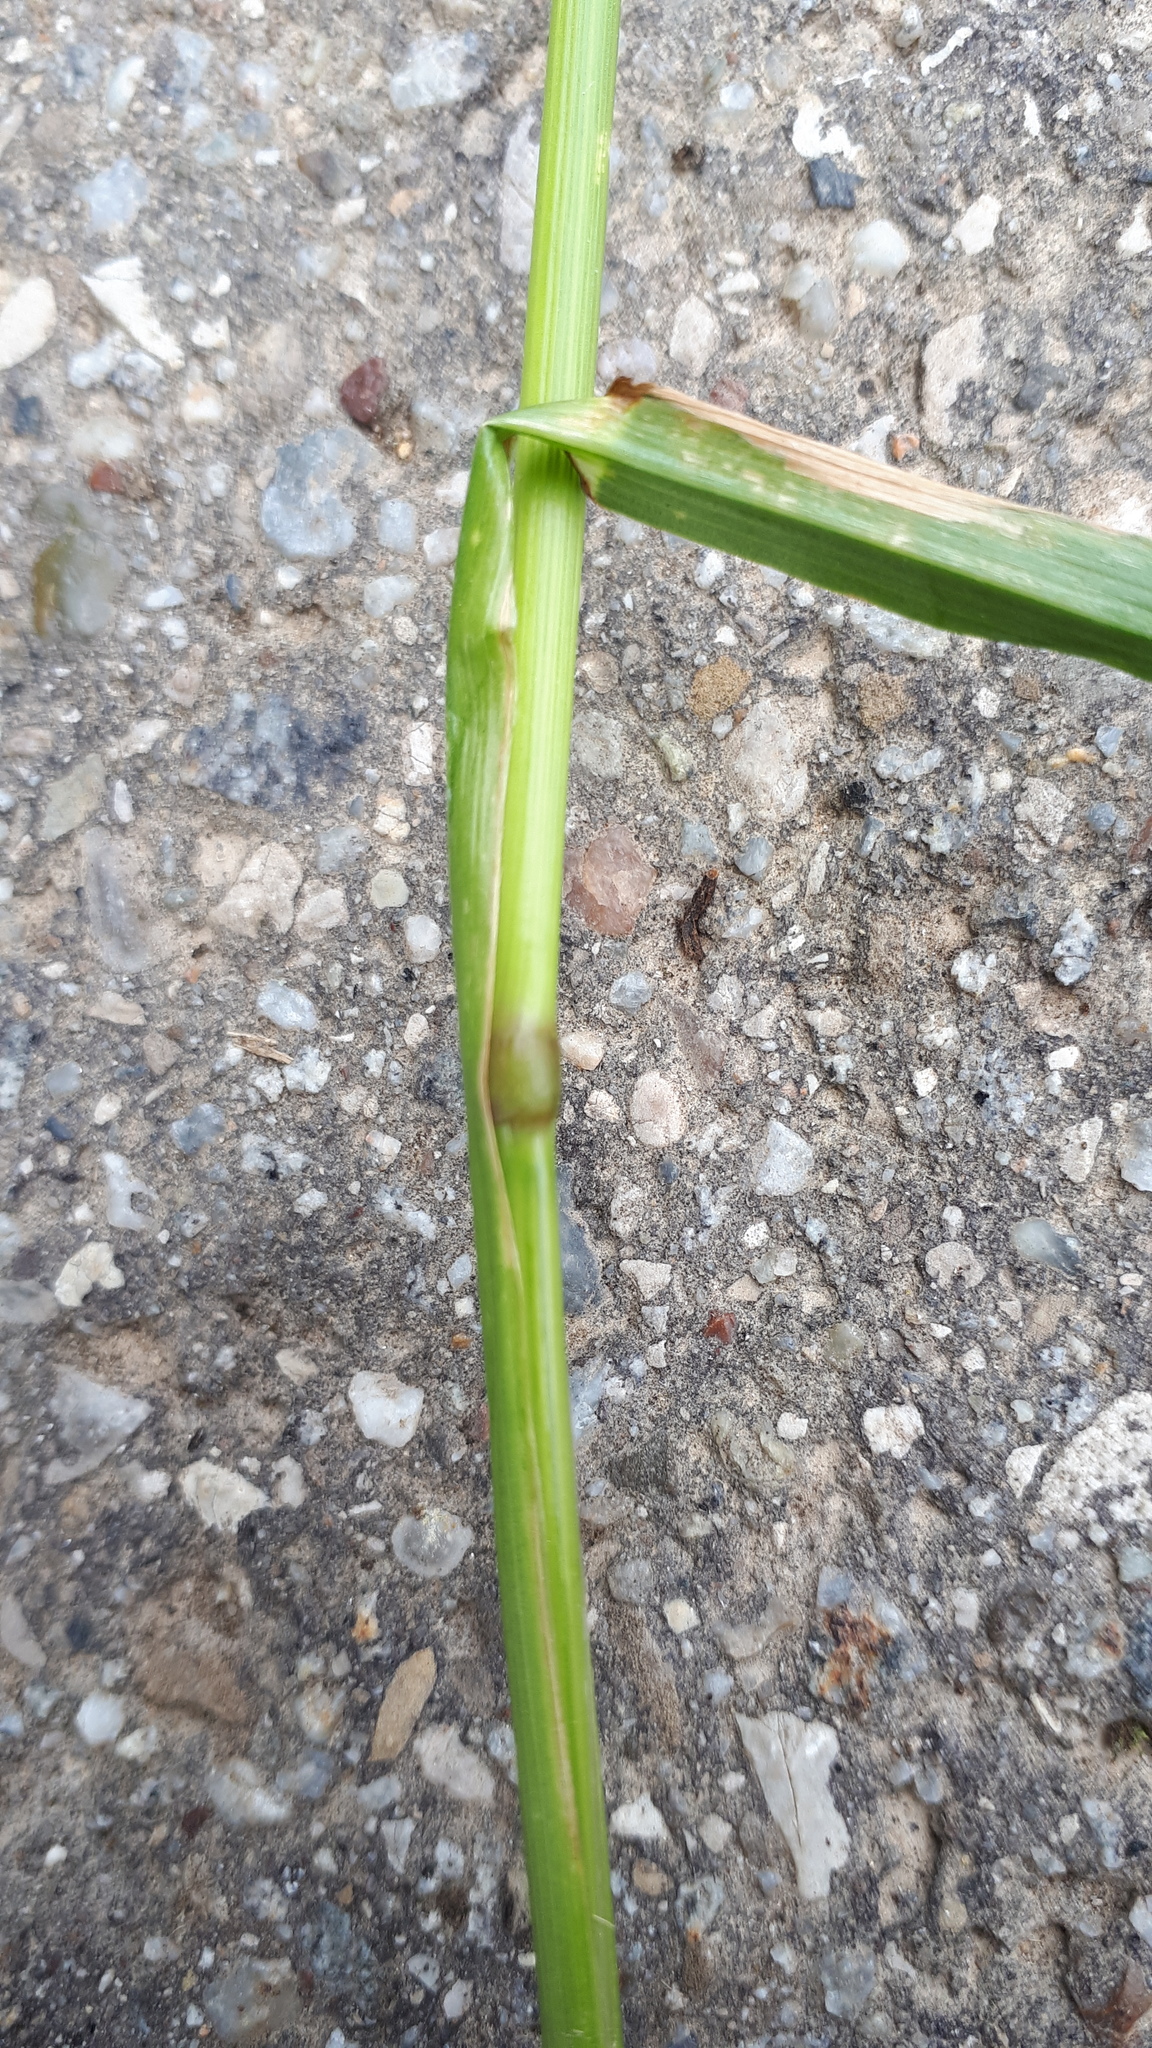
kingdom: Plantae
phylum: Tracheophyta
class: Liliopsida
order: Poales
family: Poaceae
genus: Lolium
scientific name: Lolium multiflorum
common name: Annual ryegrass
